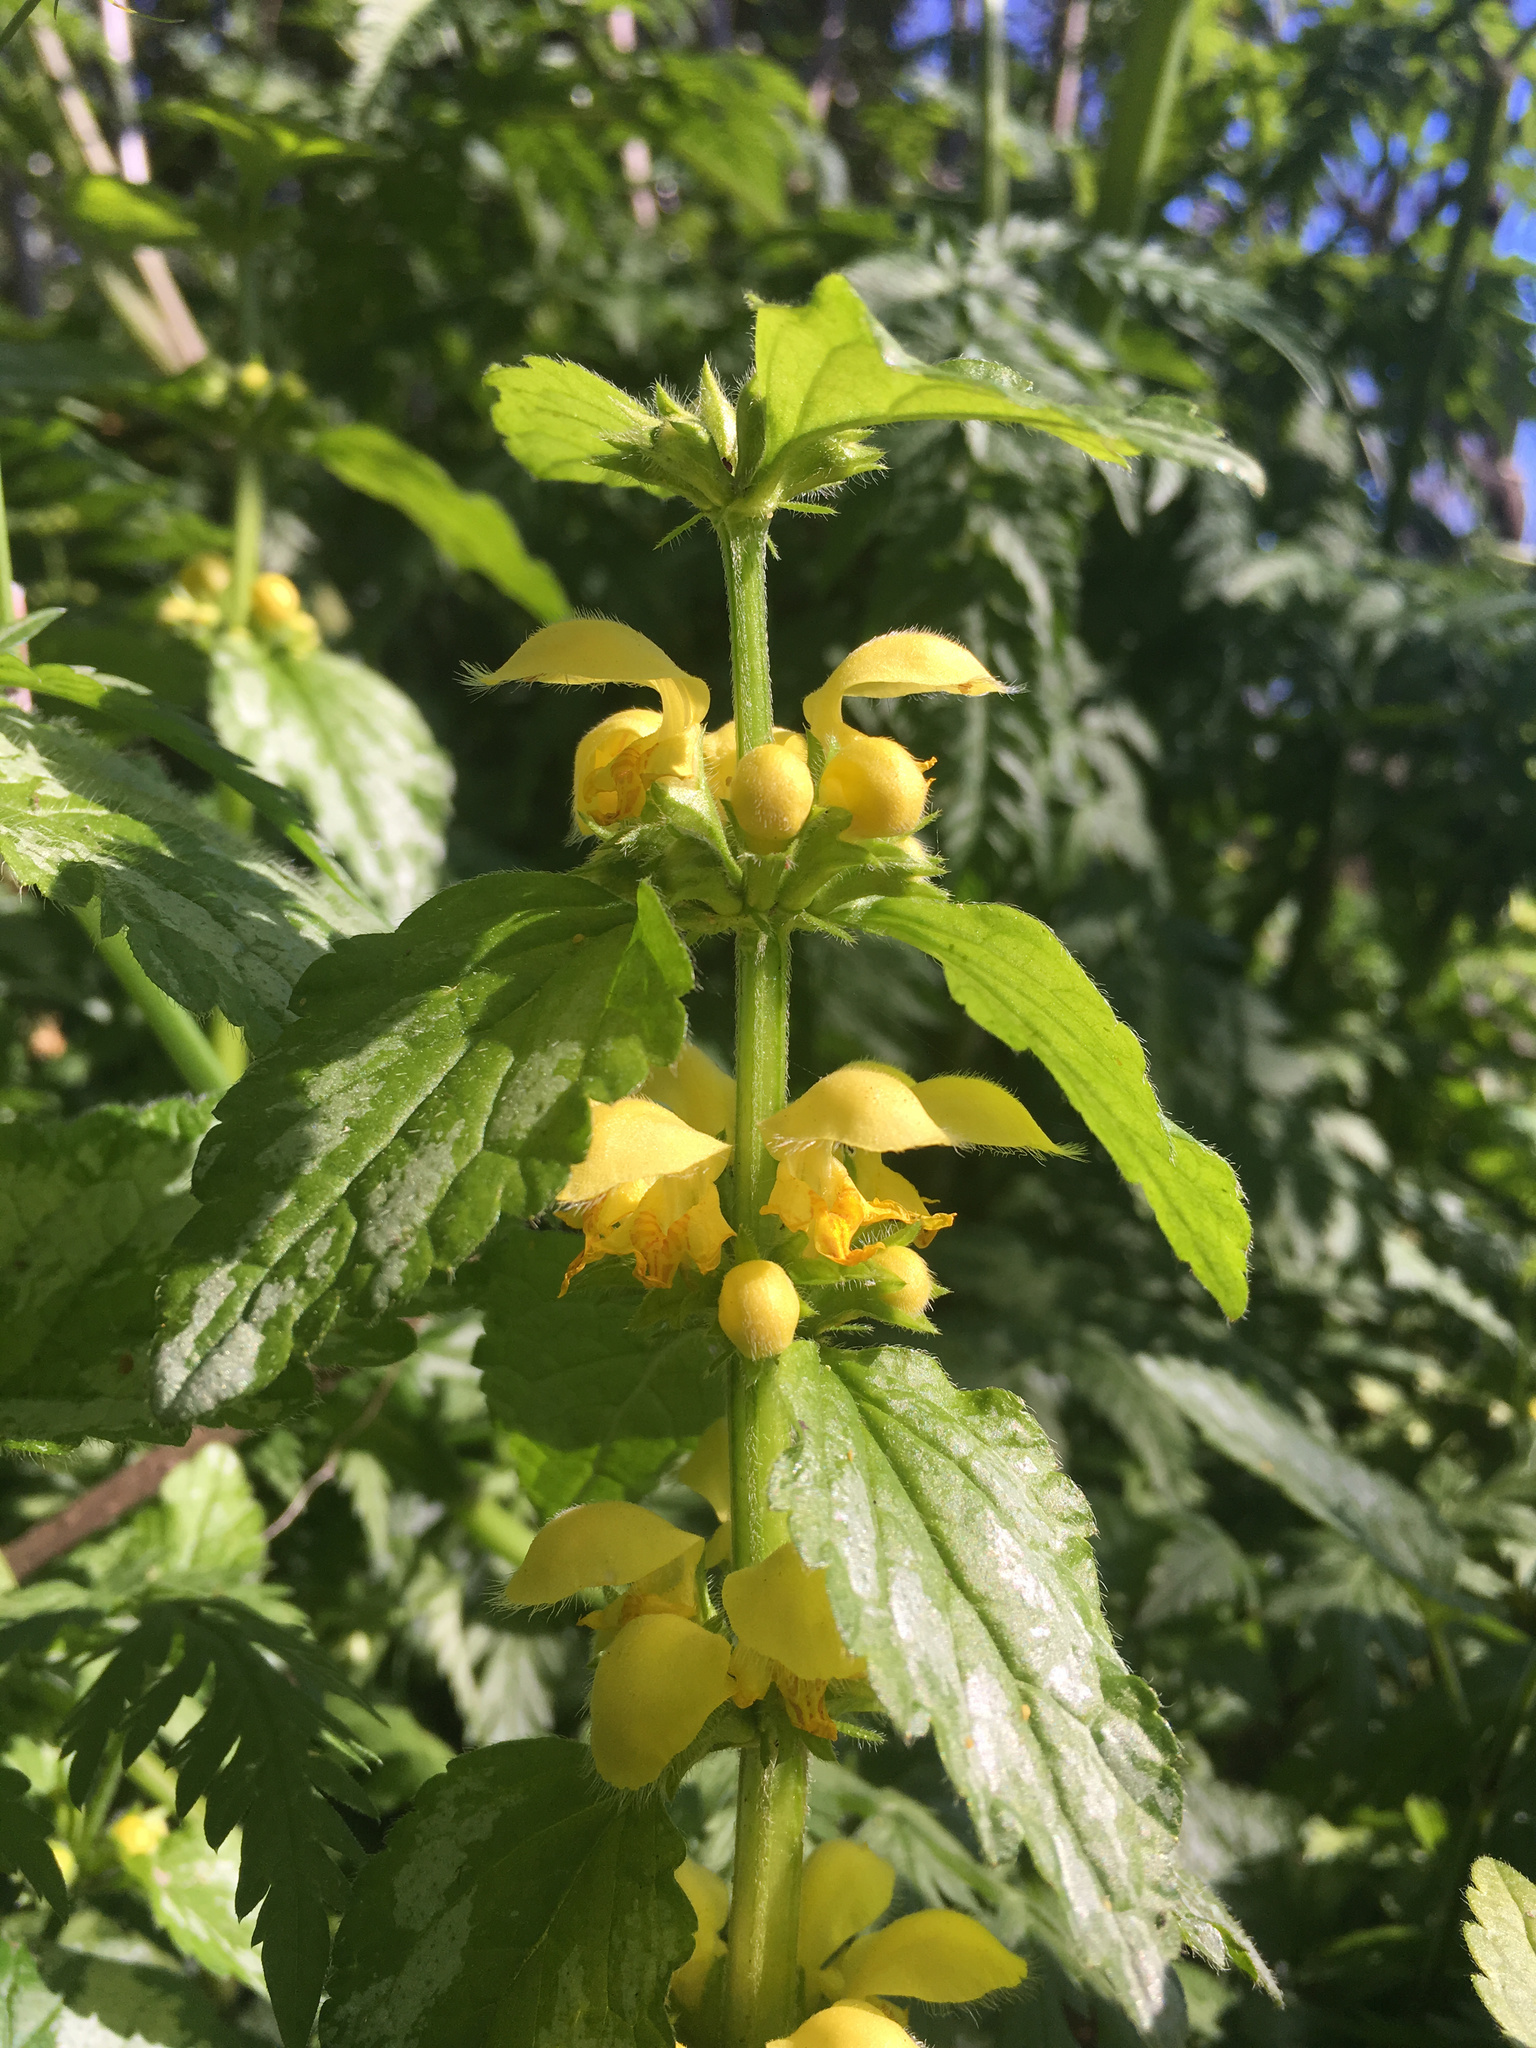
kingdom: Plantae
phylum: Tracheophyta
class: Magnoliopsida
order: Lamiales
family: Lamiaceae
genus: Lamium
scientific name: Lamium galeobdolon
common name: Yellow archangel
